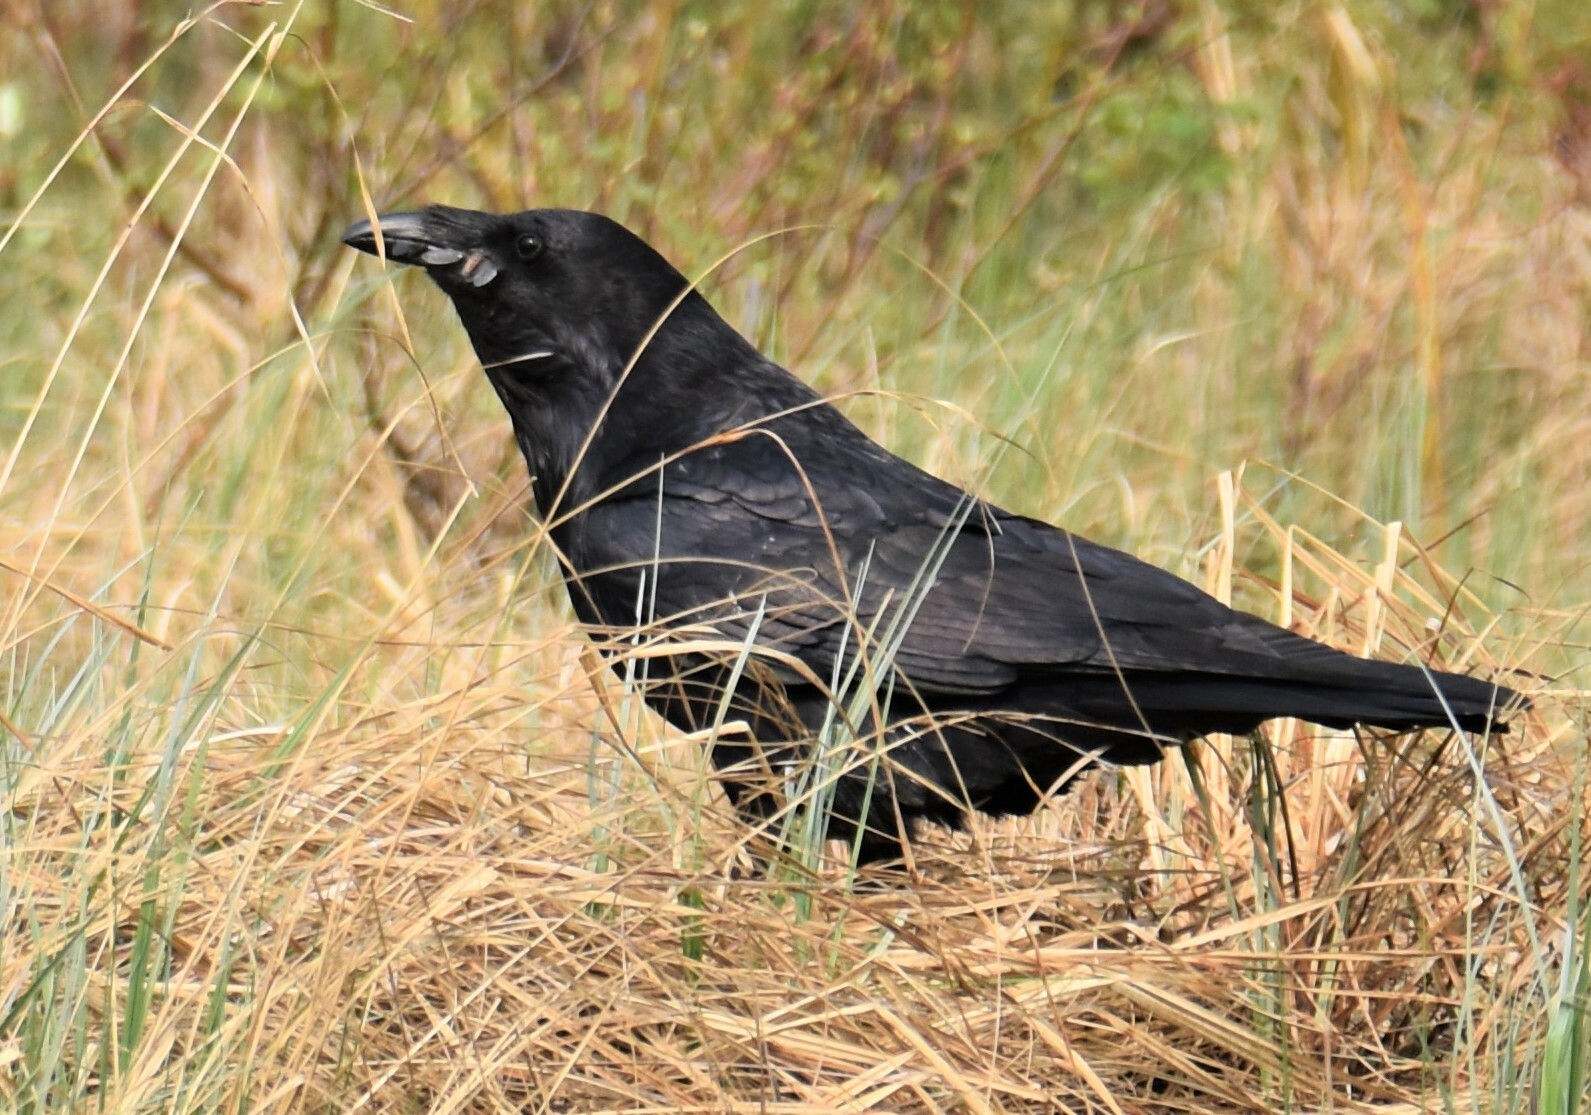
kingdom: Animalia
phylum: Chordata
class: Aves
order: Passeriformes
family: Corvidae
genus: Corvus
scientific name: Corvus corax
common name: Common raven
